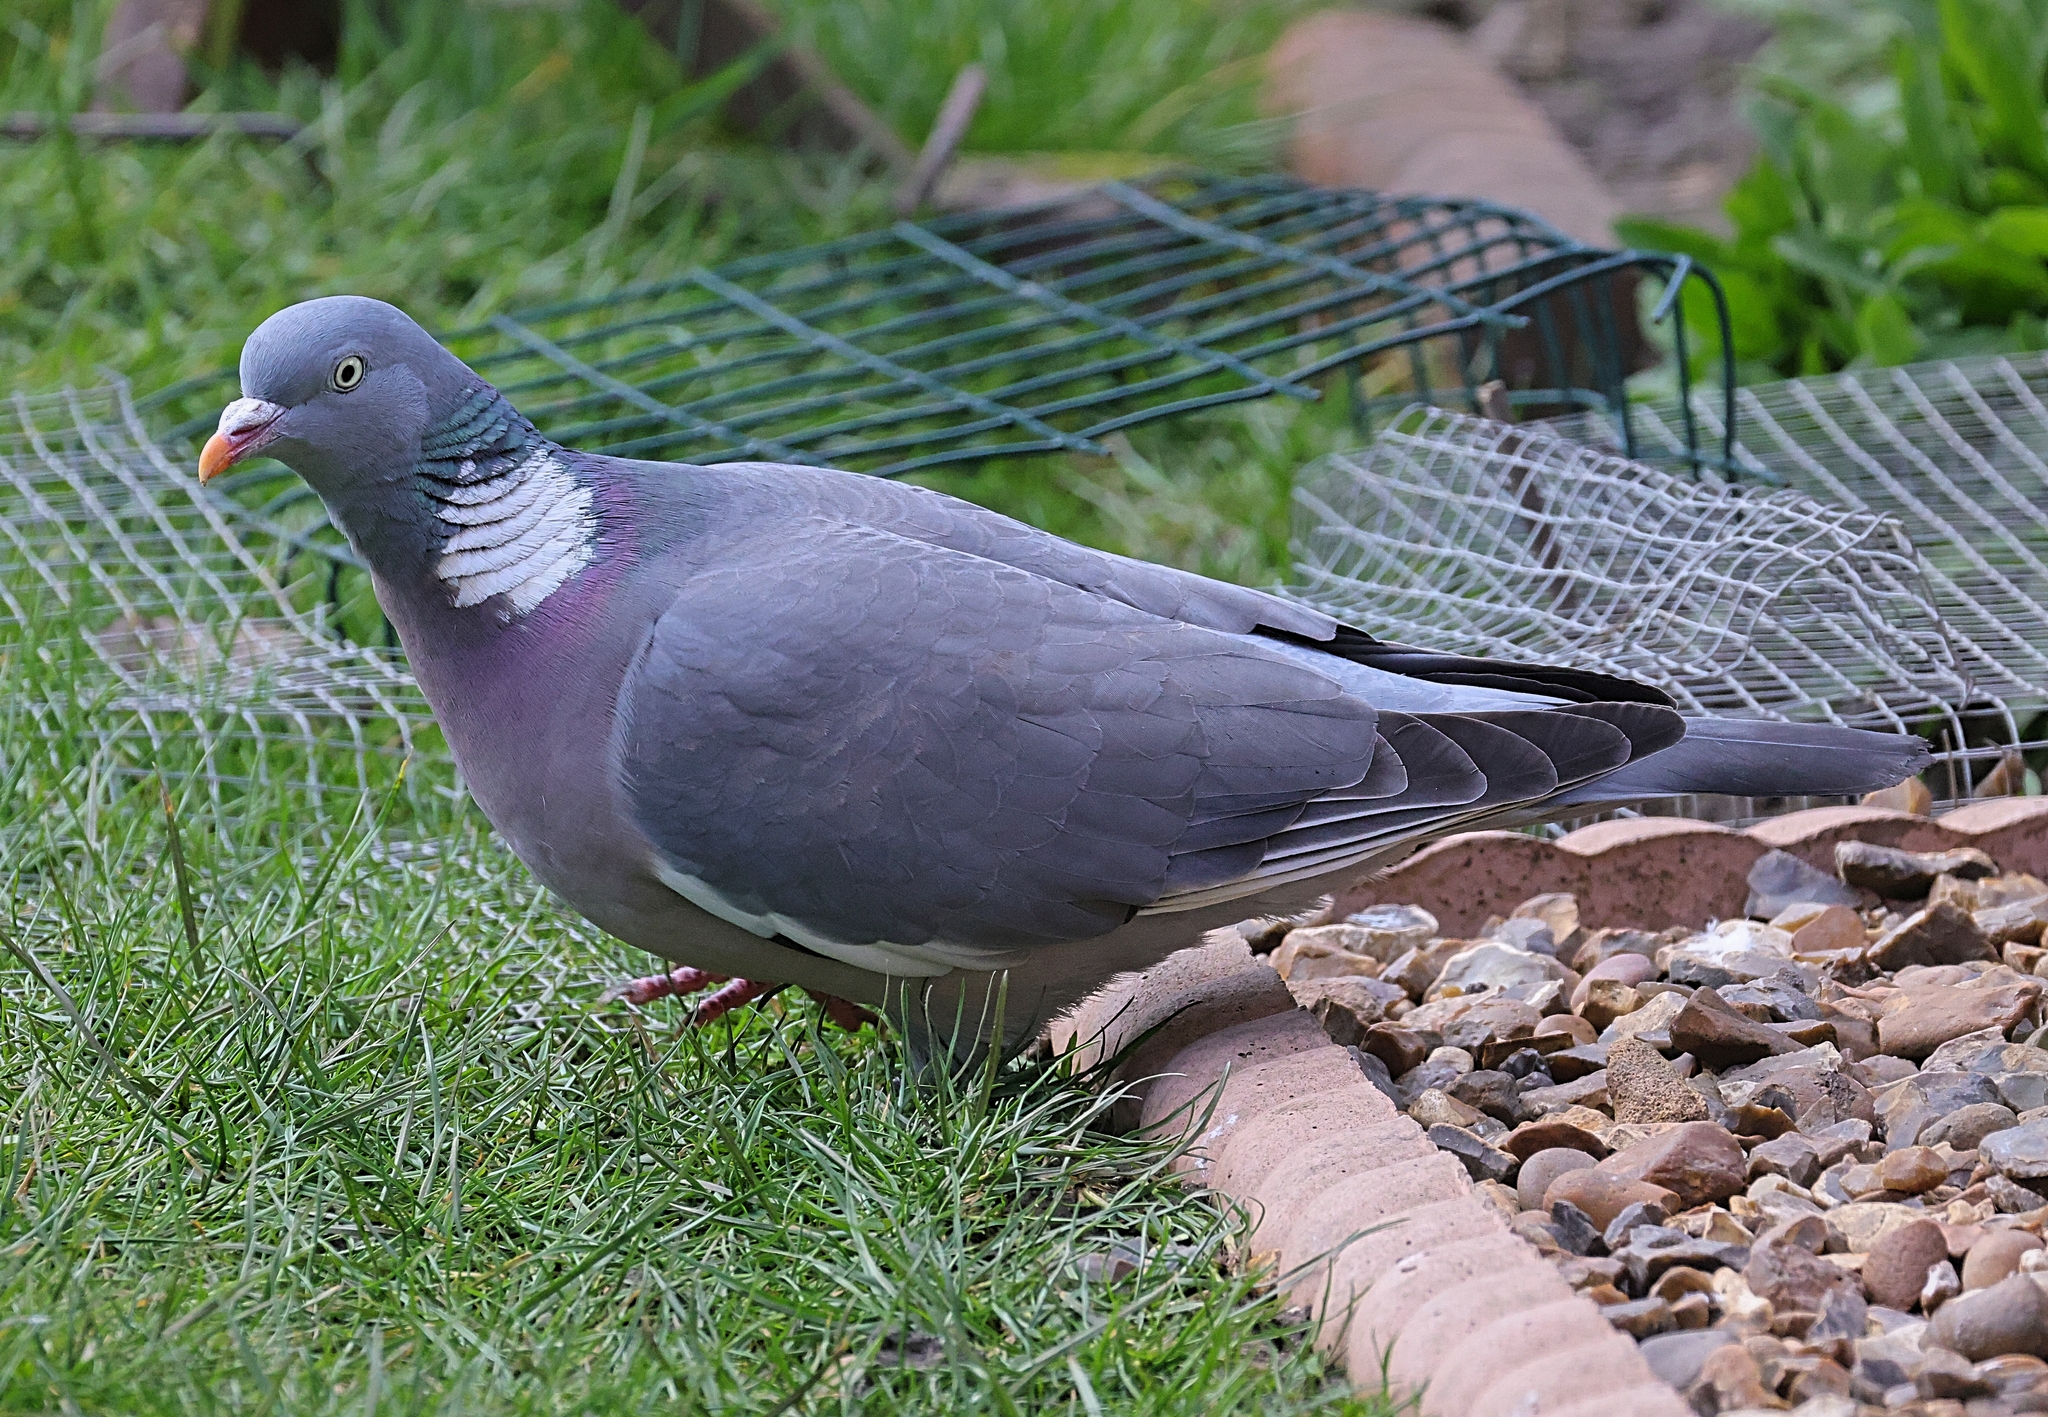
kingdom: Animalia
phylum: Chordata
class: Aves
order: Columbiformes
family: Columbidae
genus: Columba
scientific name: Columba palumbus
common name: Common wood pigeon
